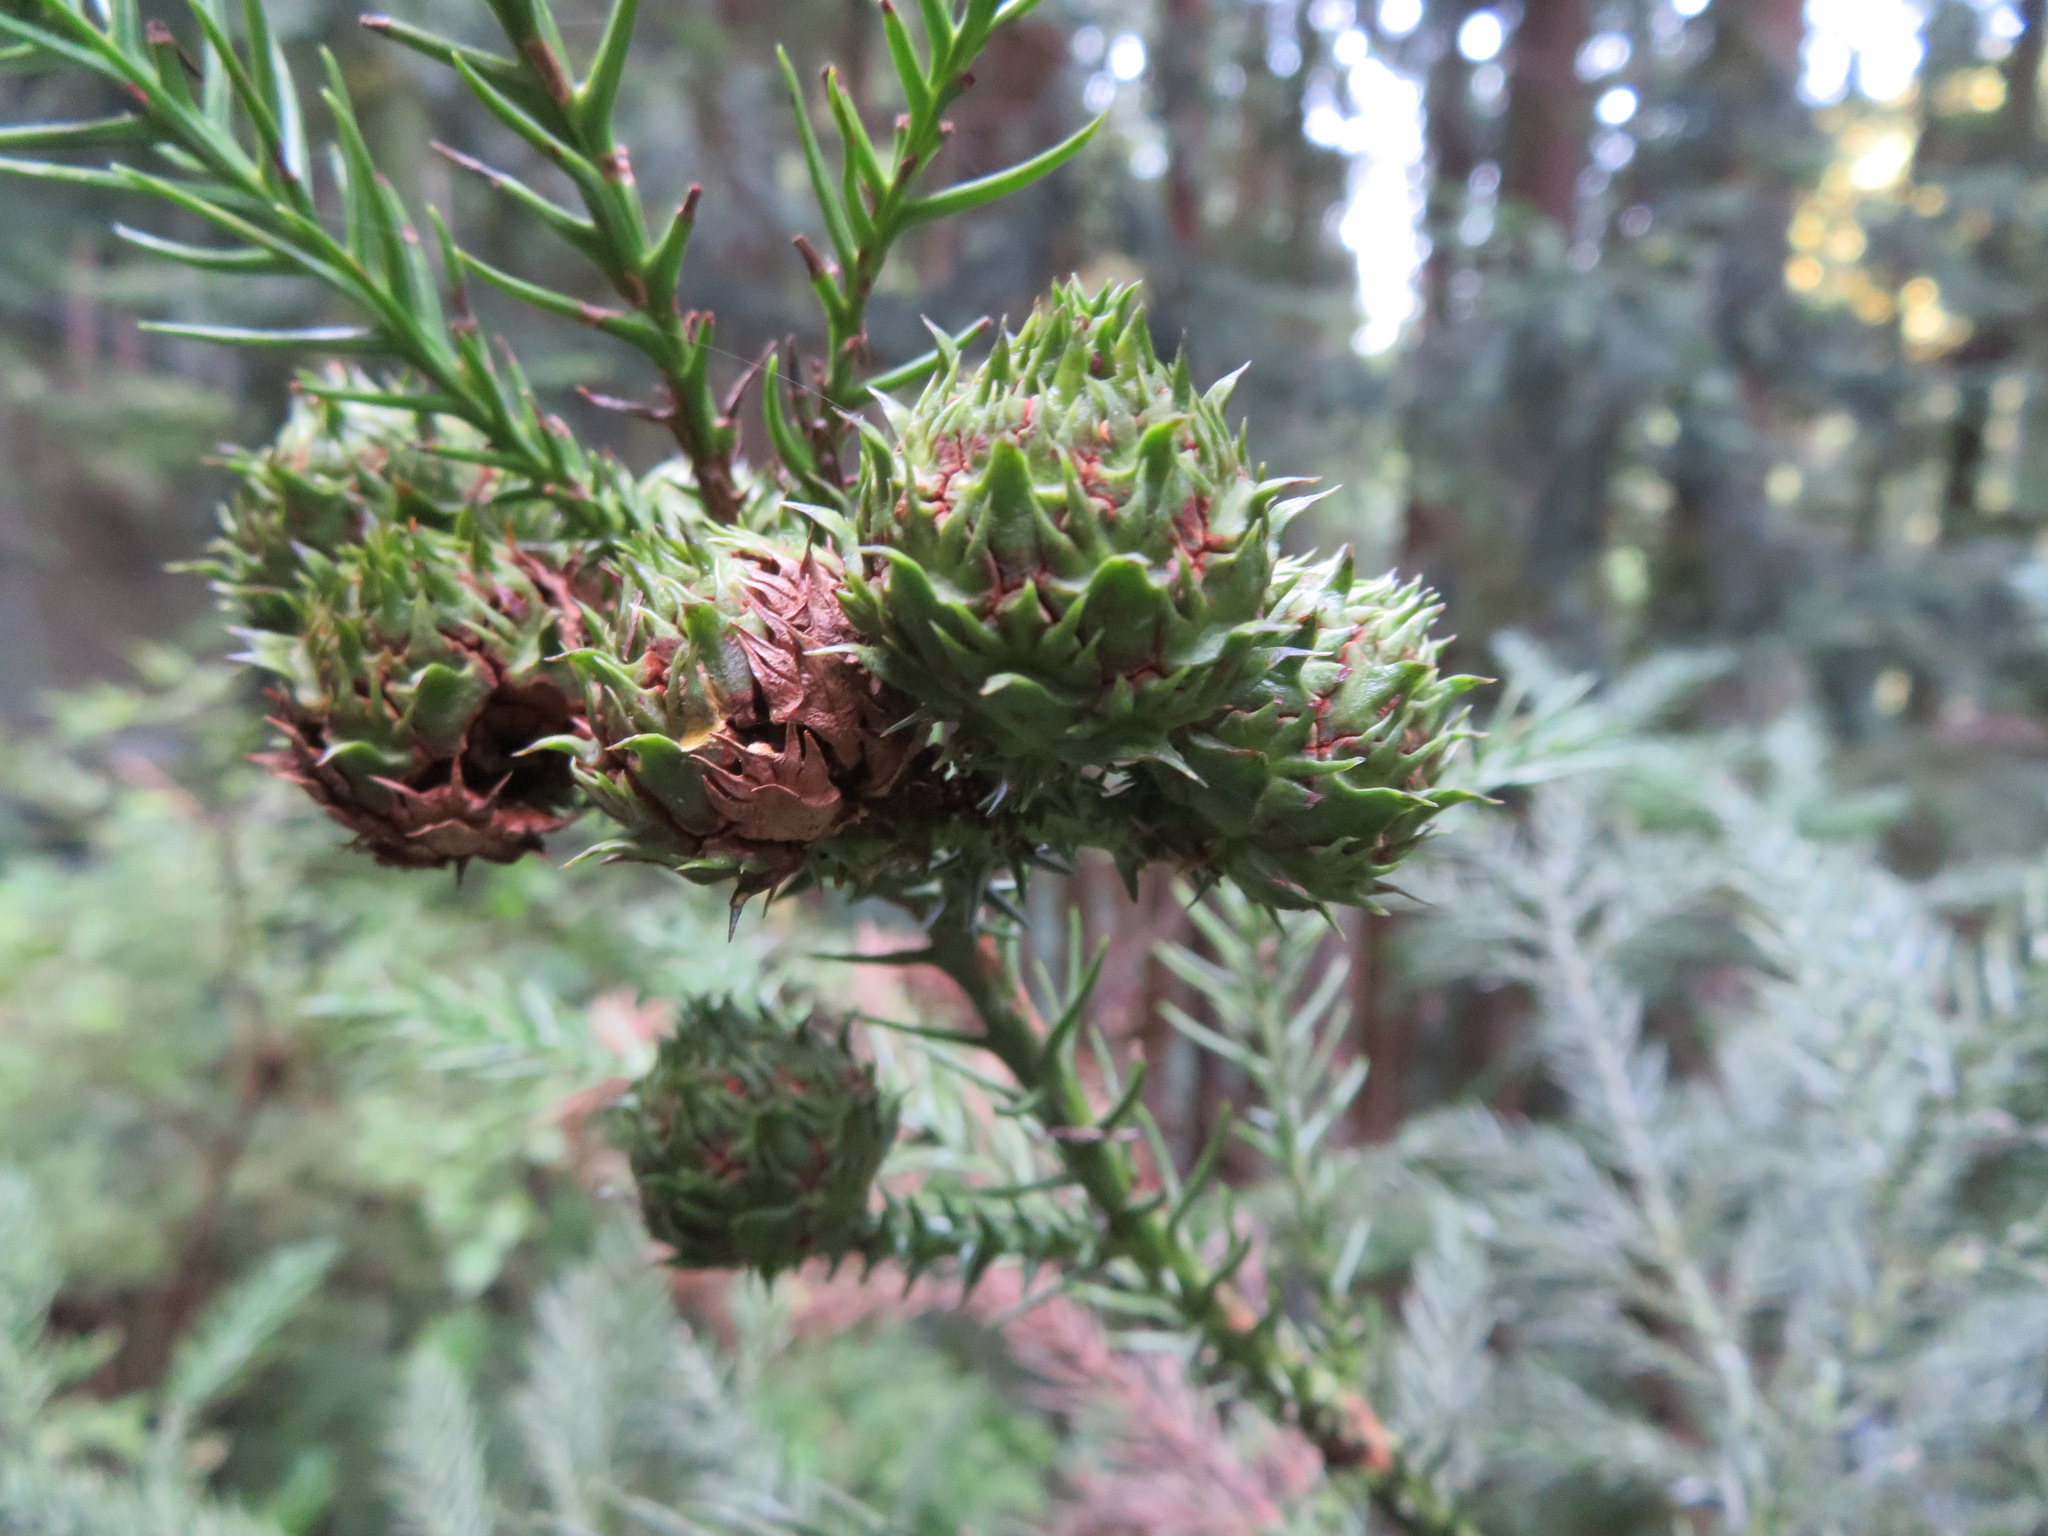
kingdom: Plantae
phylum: Tracheophyta
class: Pinopsida
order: Pinales
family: Cupressaceae
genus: Cryptomeria
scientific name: Cryptomeria japonica
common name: Japanese cedar
